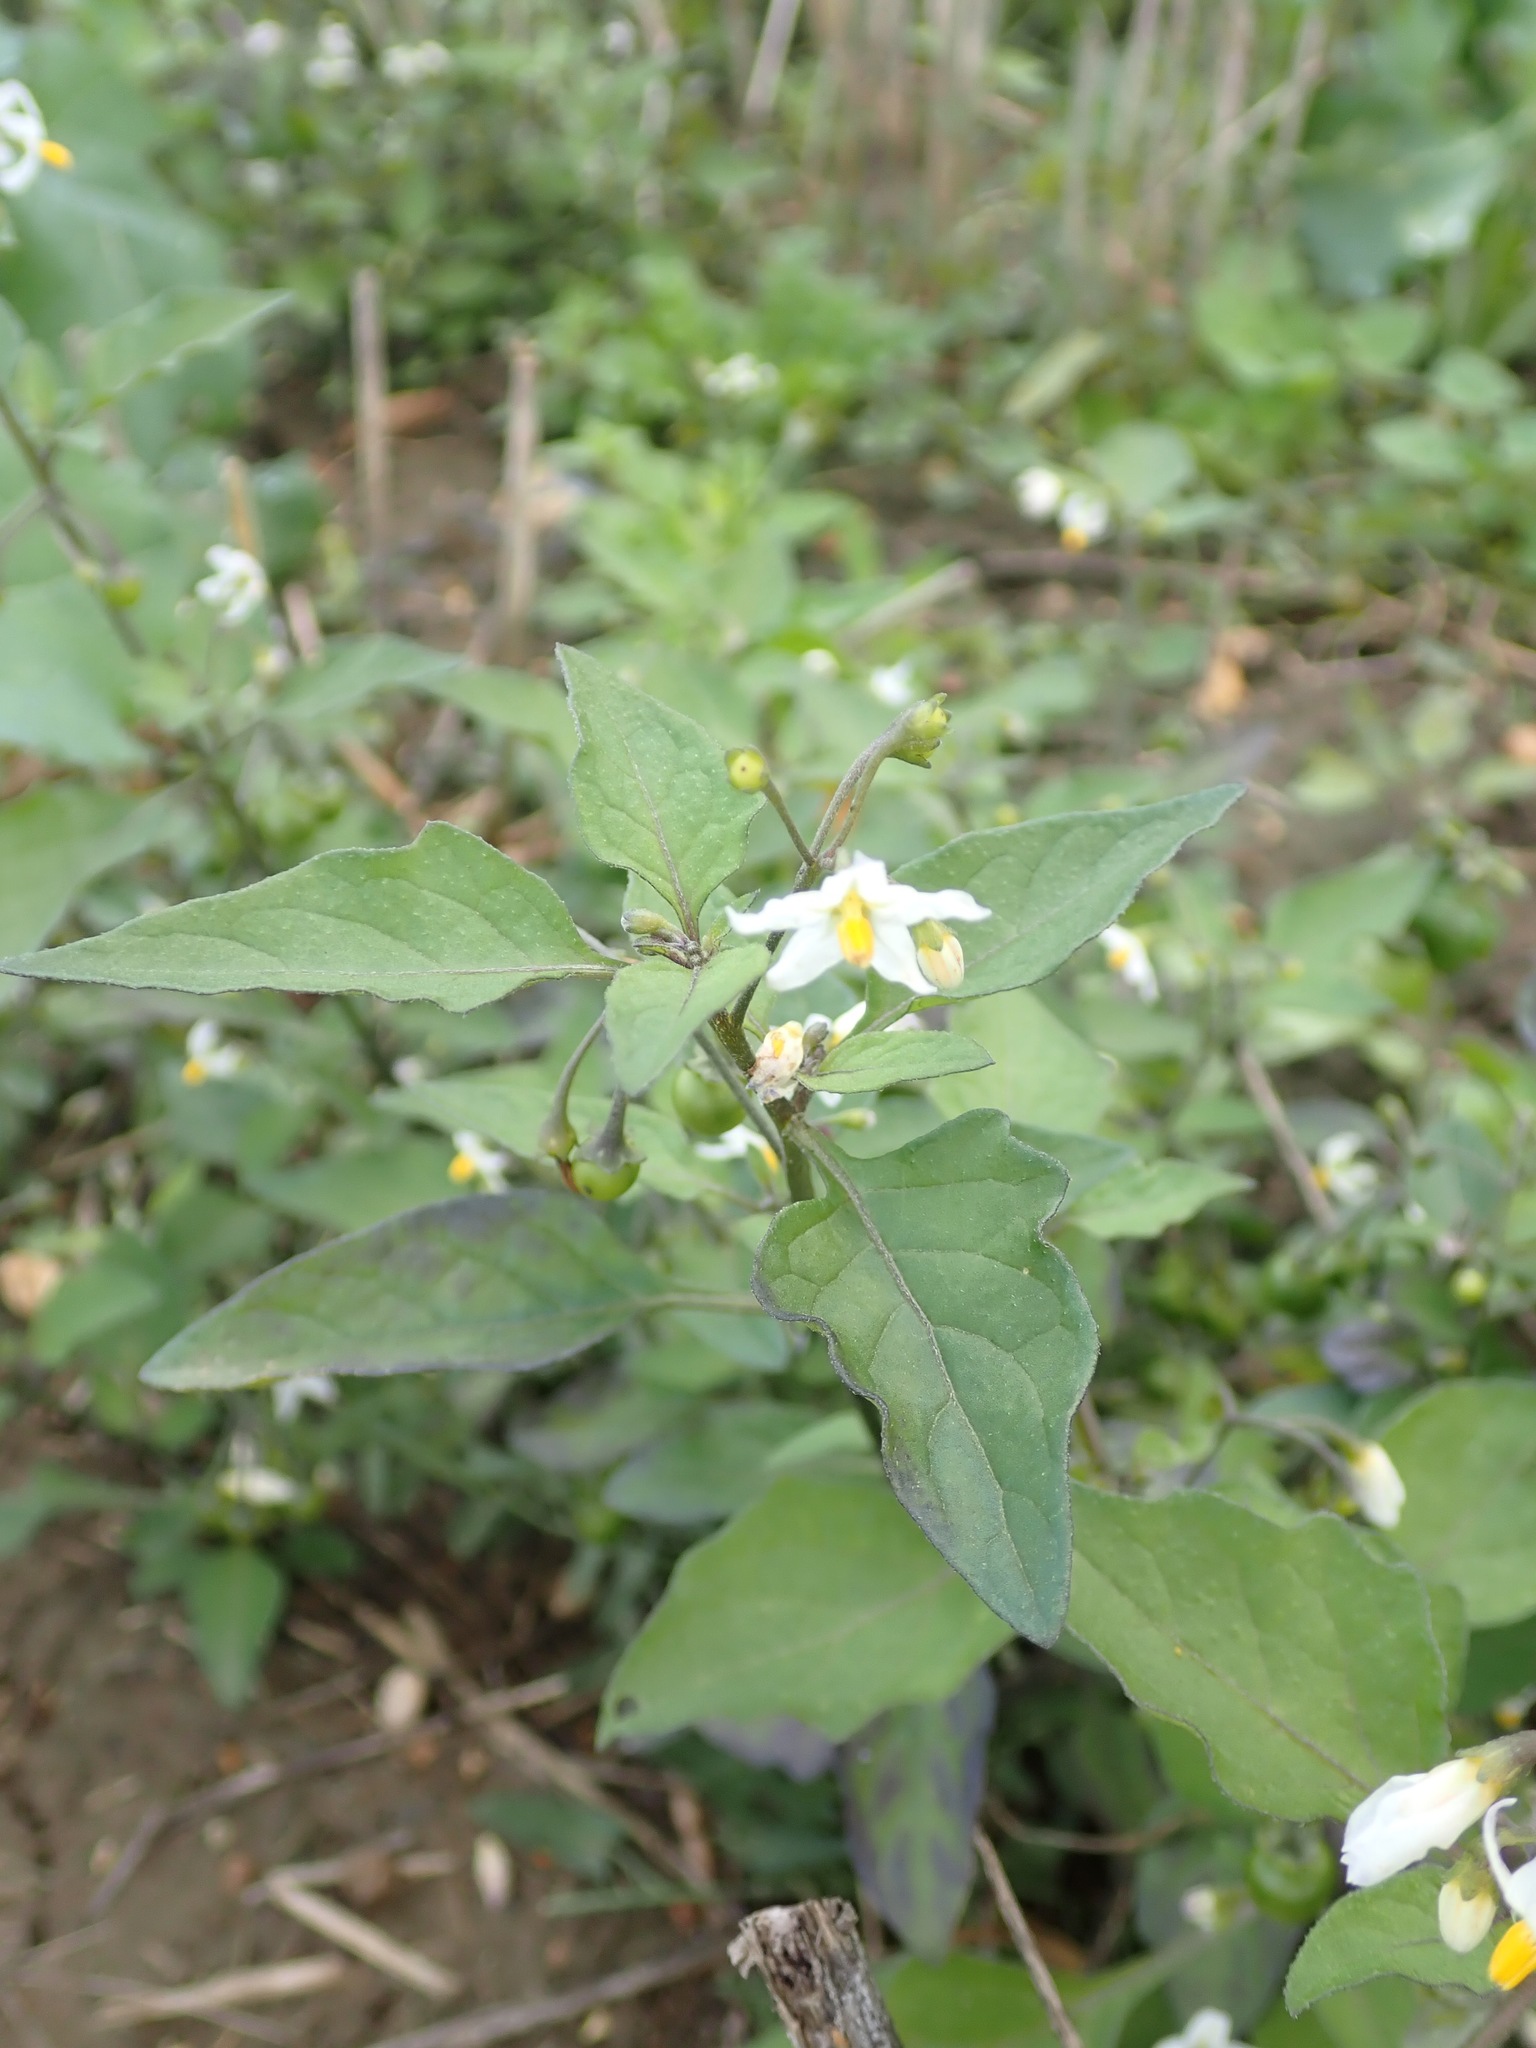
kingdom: Plantae
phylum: Tracheophyta
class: Magnoliopsida
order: Solanales
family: Solanaceae
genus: Solanum
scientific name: Solanum nigrum
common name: Black nightshade
